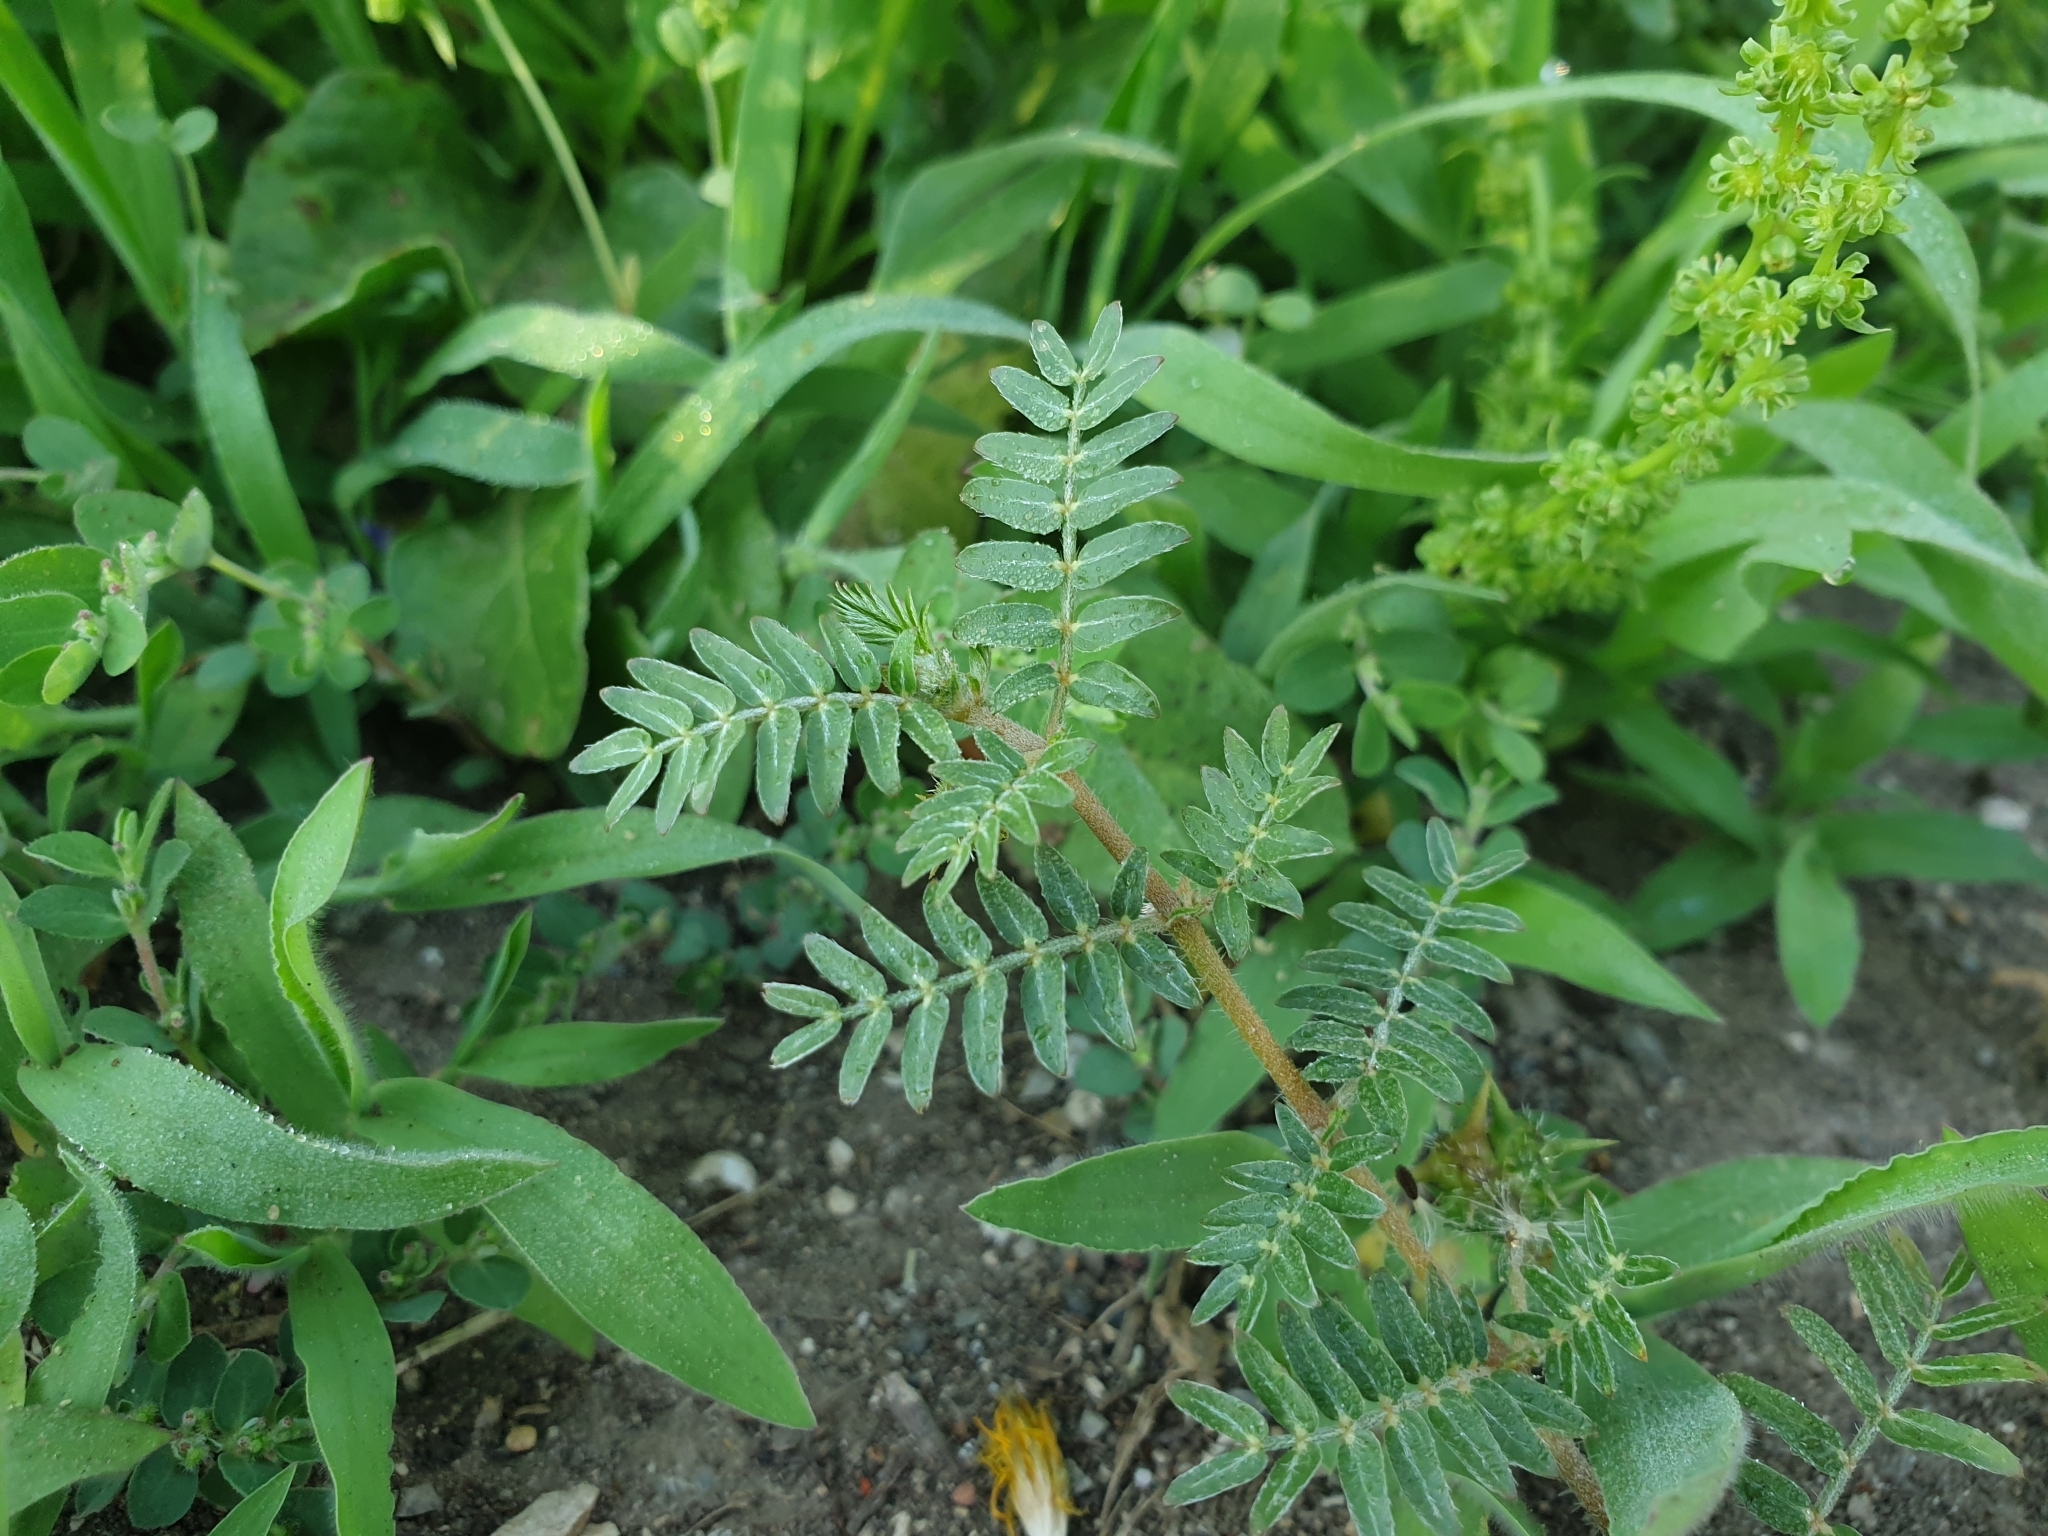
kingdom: Plantae
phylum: Tracheophyta
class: Magnoliopsida
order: Zygophyllales
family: Zygophyllaceae
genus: Tribulus
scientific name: Tribulus terrestris
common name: Puncturevine
